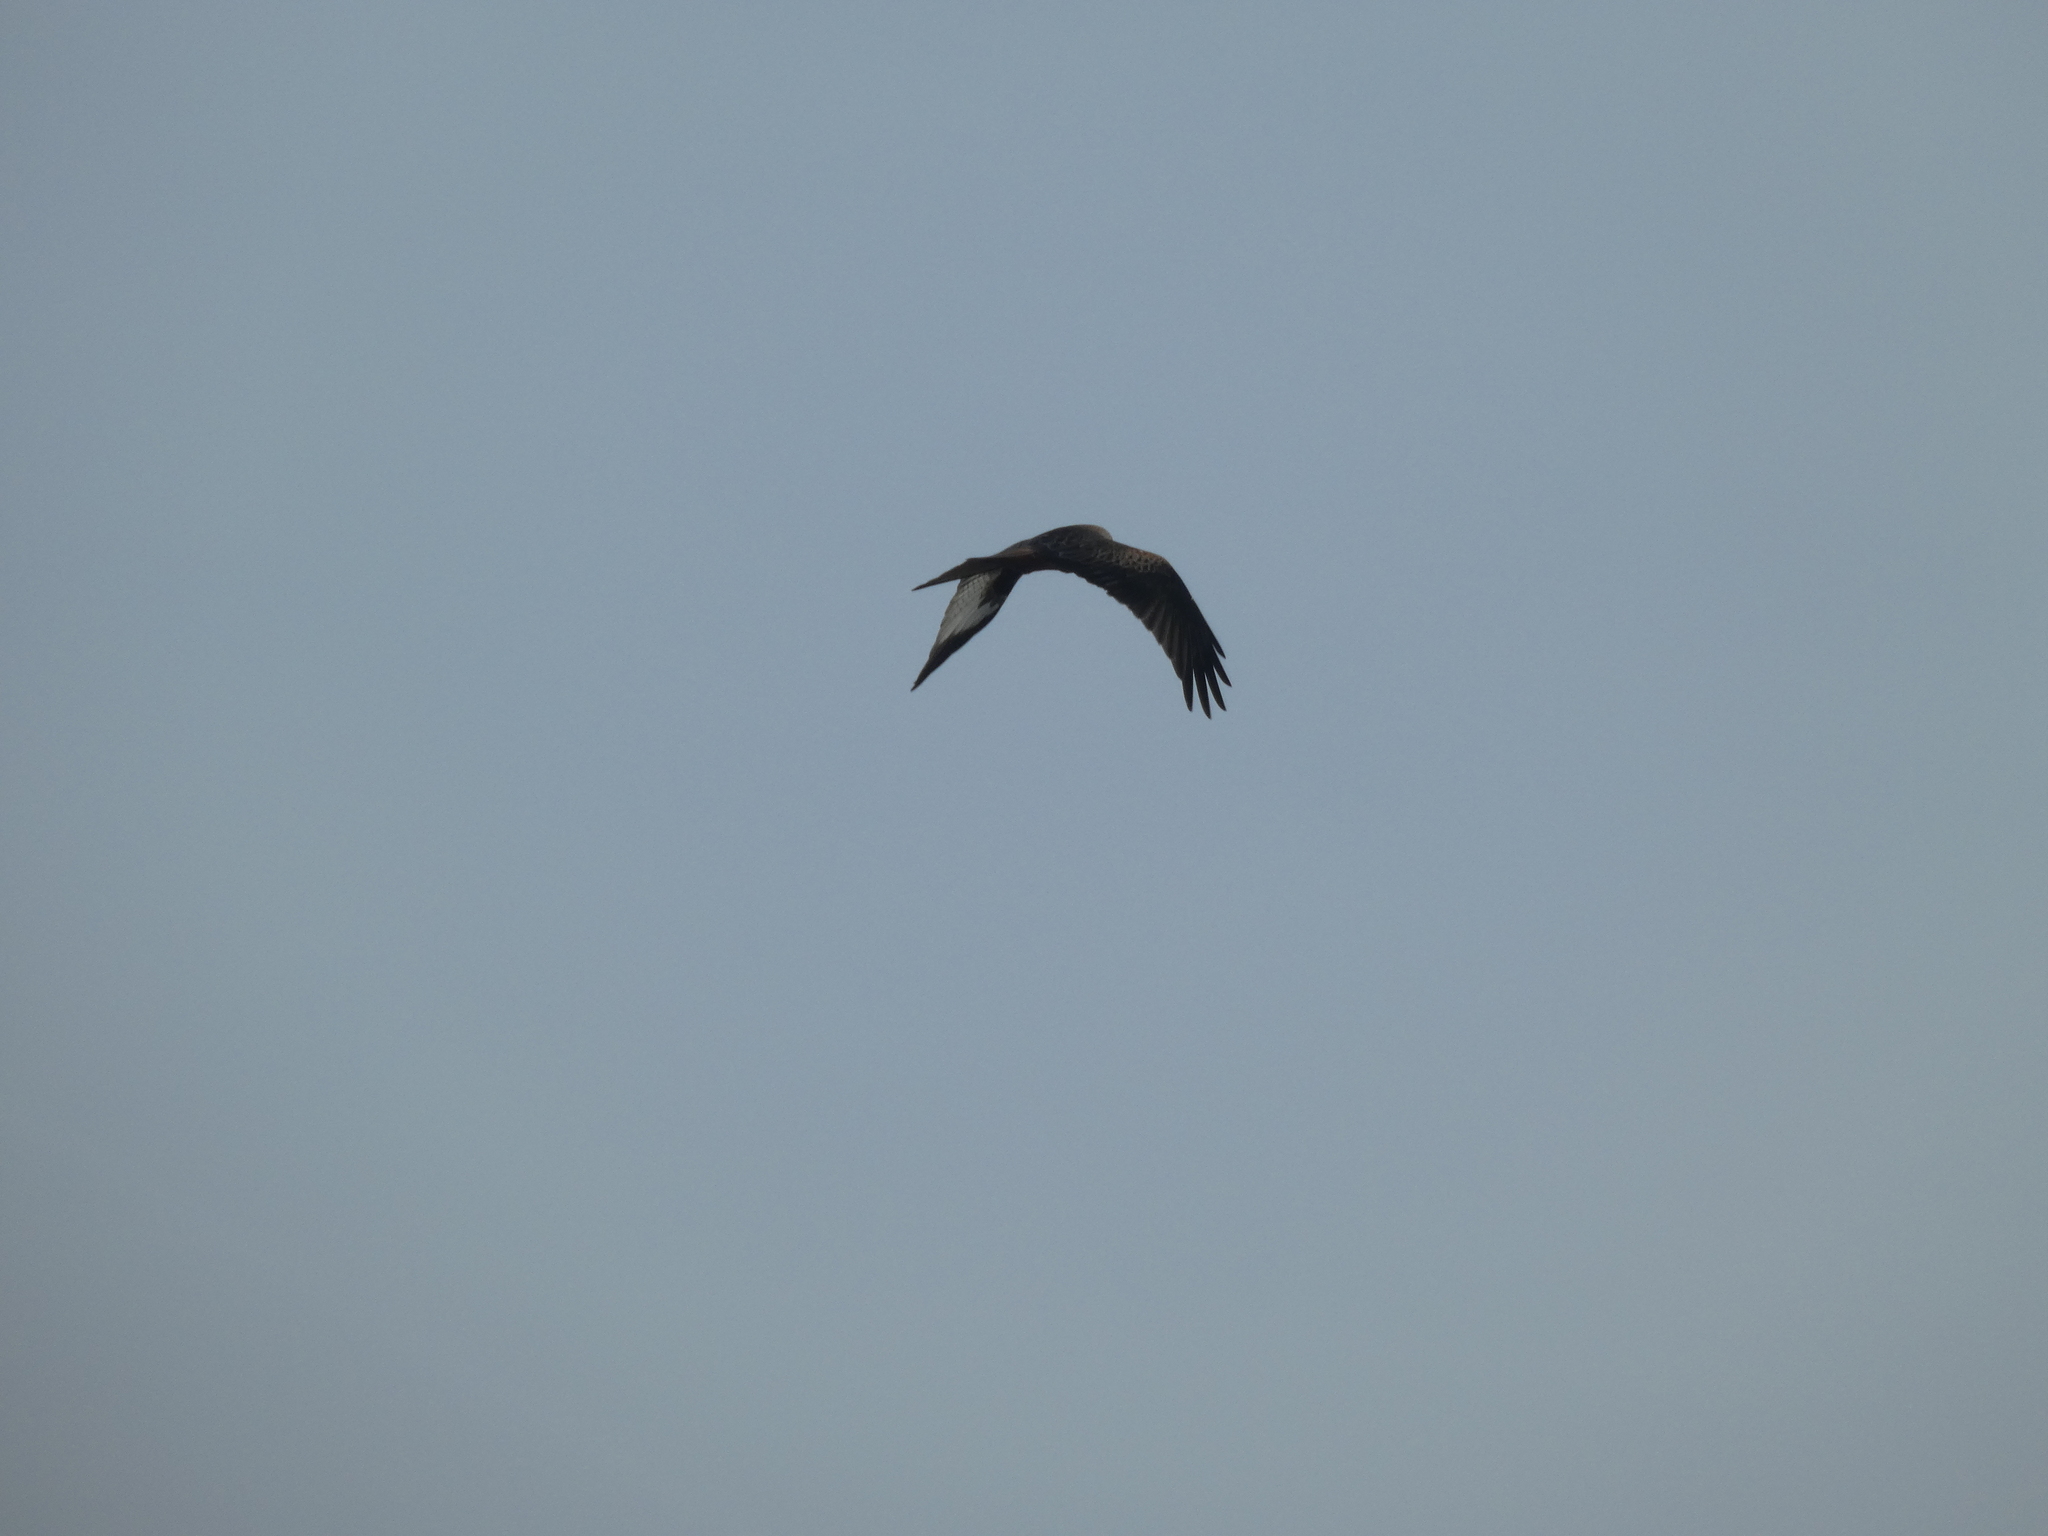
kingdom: Animalia
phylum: Chordata
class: Aves
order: Accipitriformes
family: Accipitridae
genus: Milvus
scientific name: Milvus milvus
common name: Red kite
